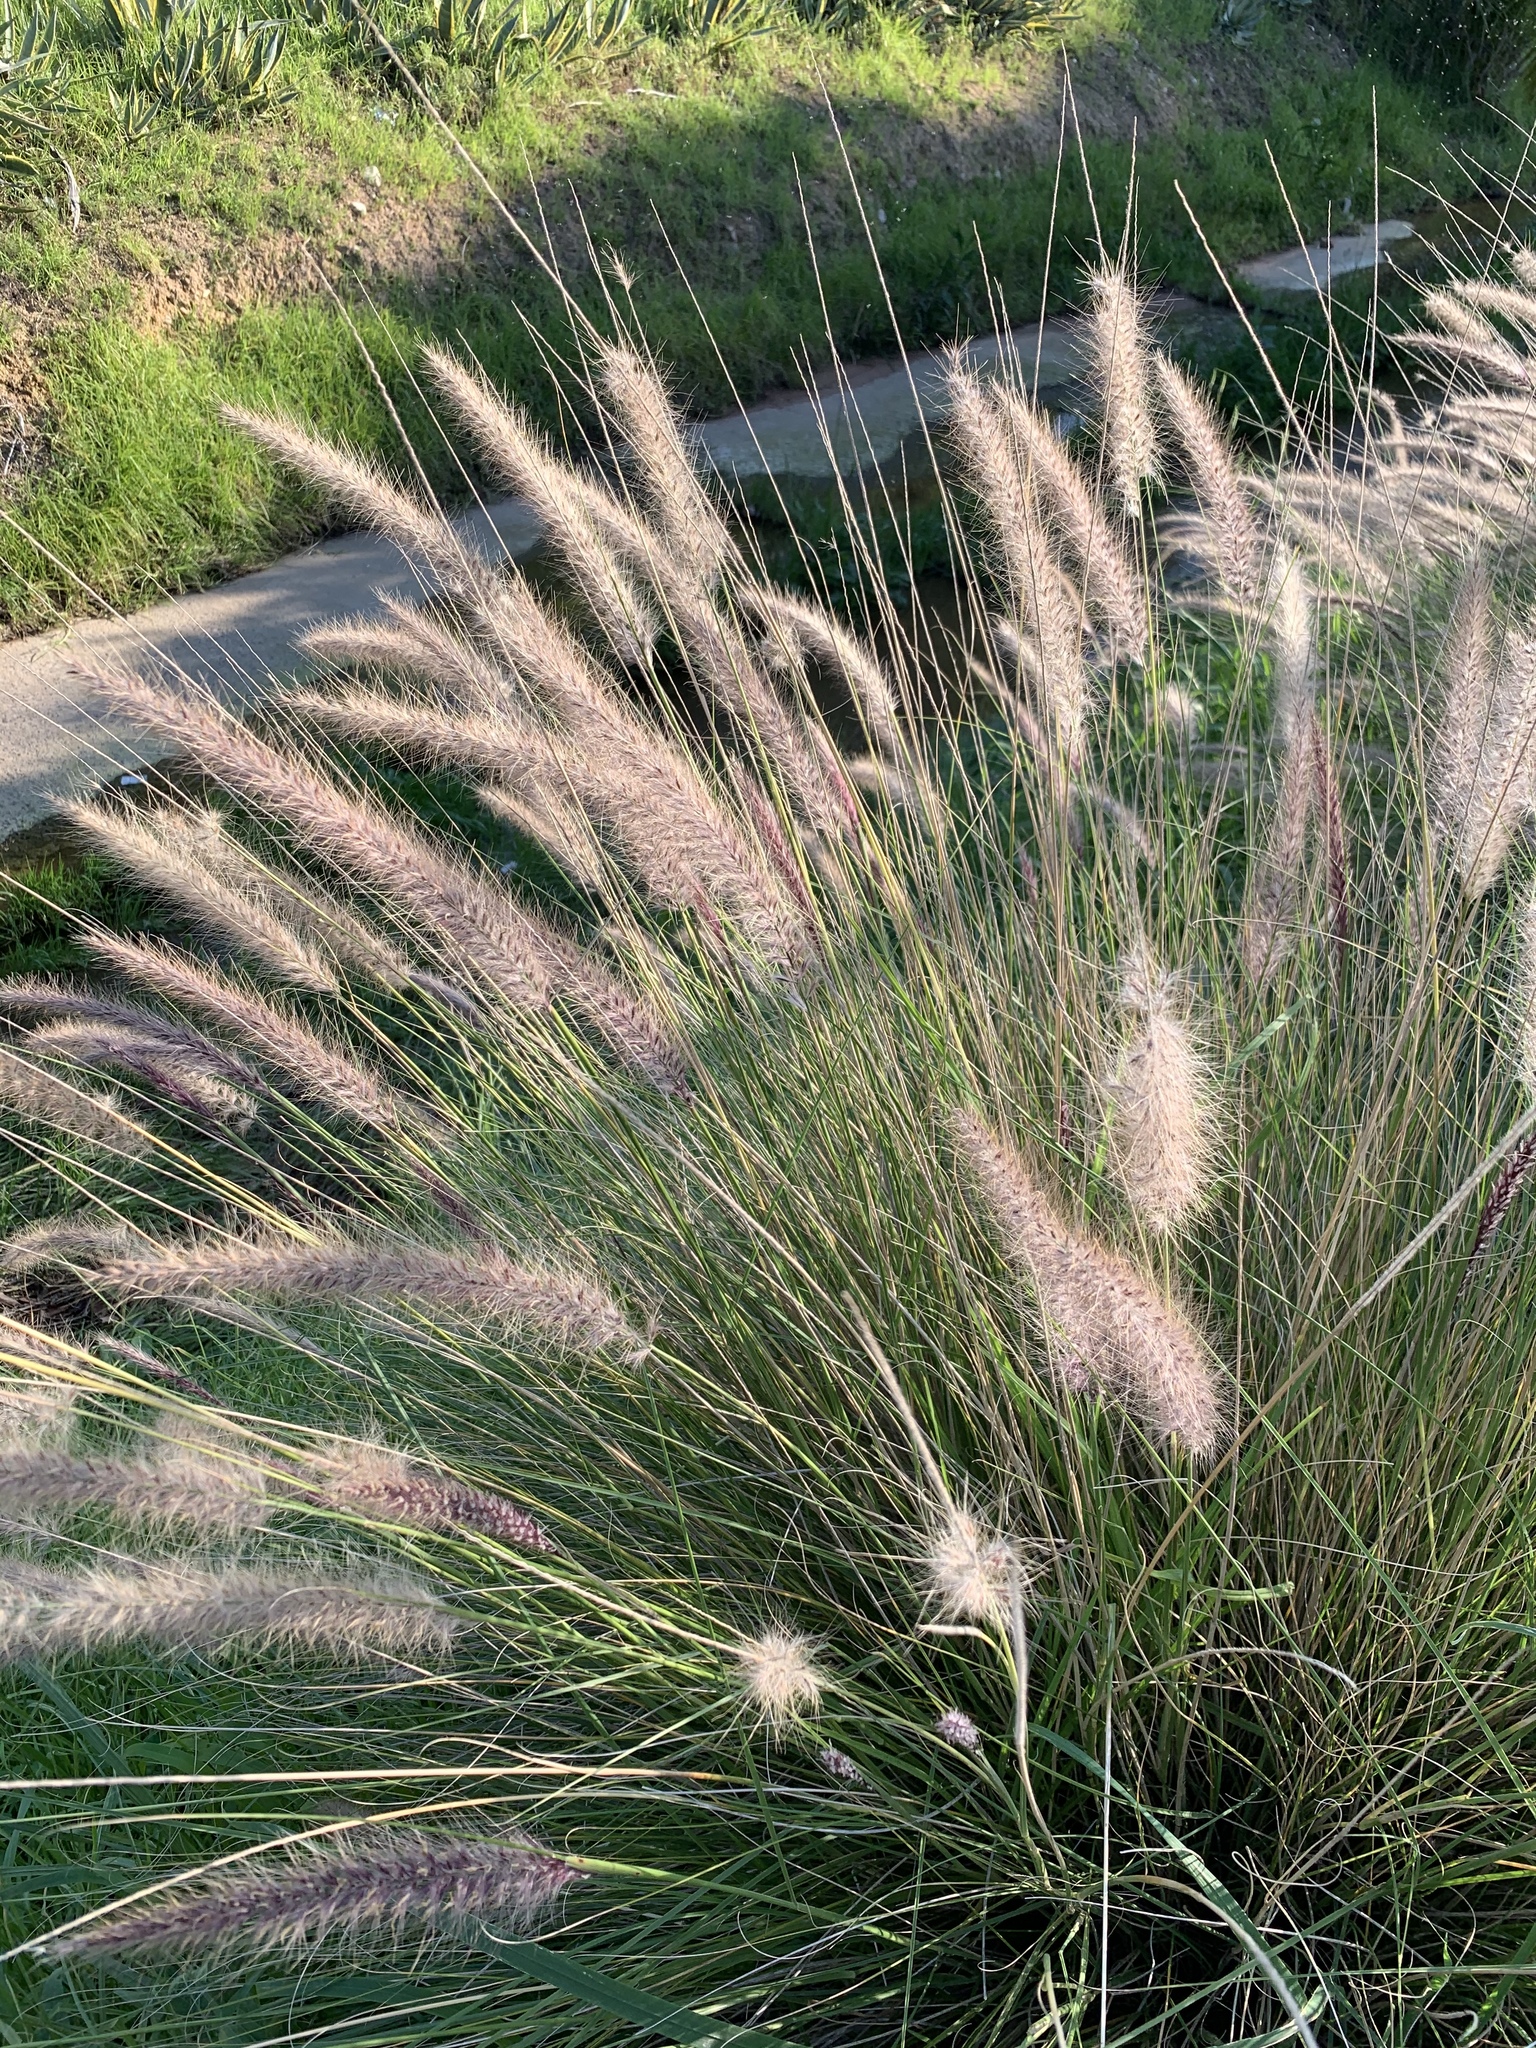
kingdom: Plantae
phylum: Tracheophyta
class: Liliopsida
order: Poales
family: Poaceae
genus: Cenchrus
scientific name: Cenchrus setaceus
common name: Crimson fountaingrass
